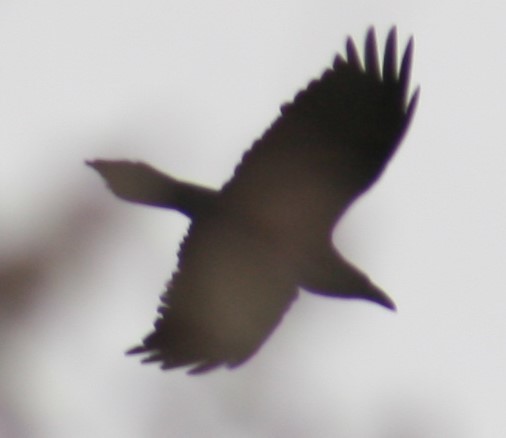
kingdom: Animalia
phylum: Chordata
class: Aves
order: Passeriformes
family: Corvidae
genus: Corvus
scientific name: Corvus corax
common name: Common raven
